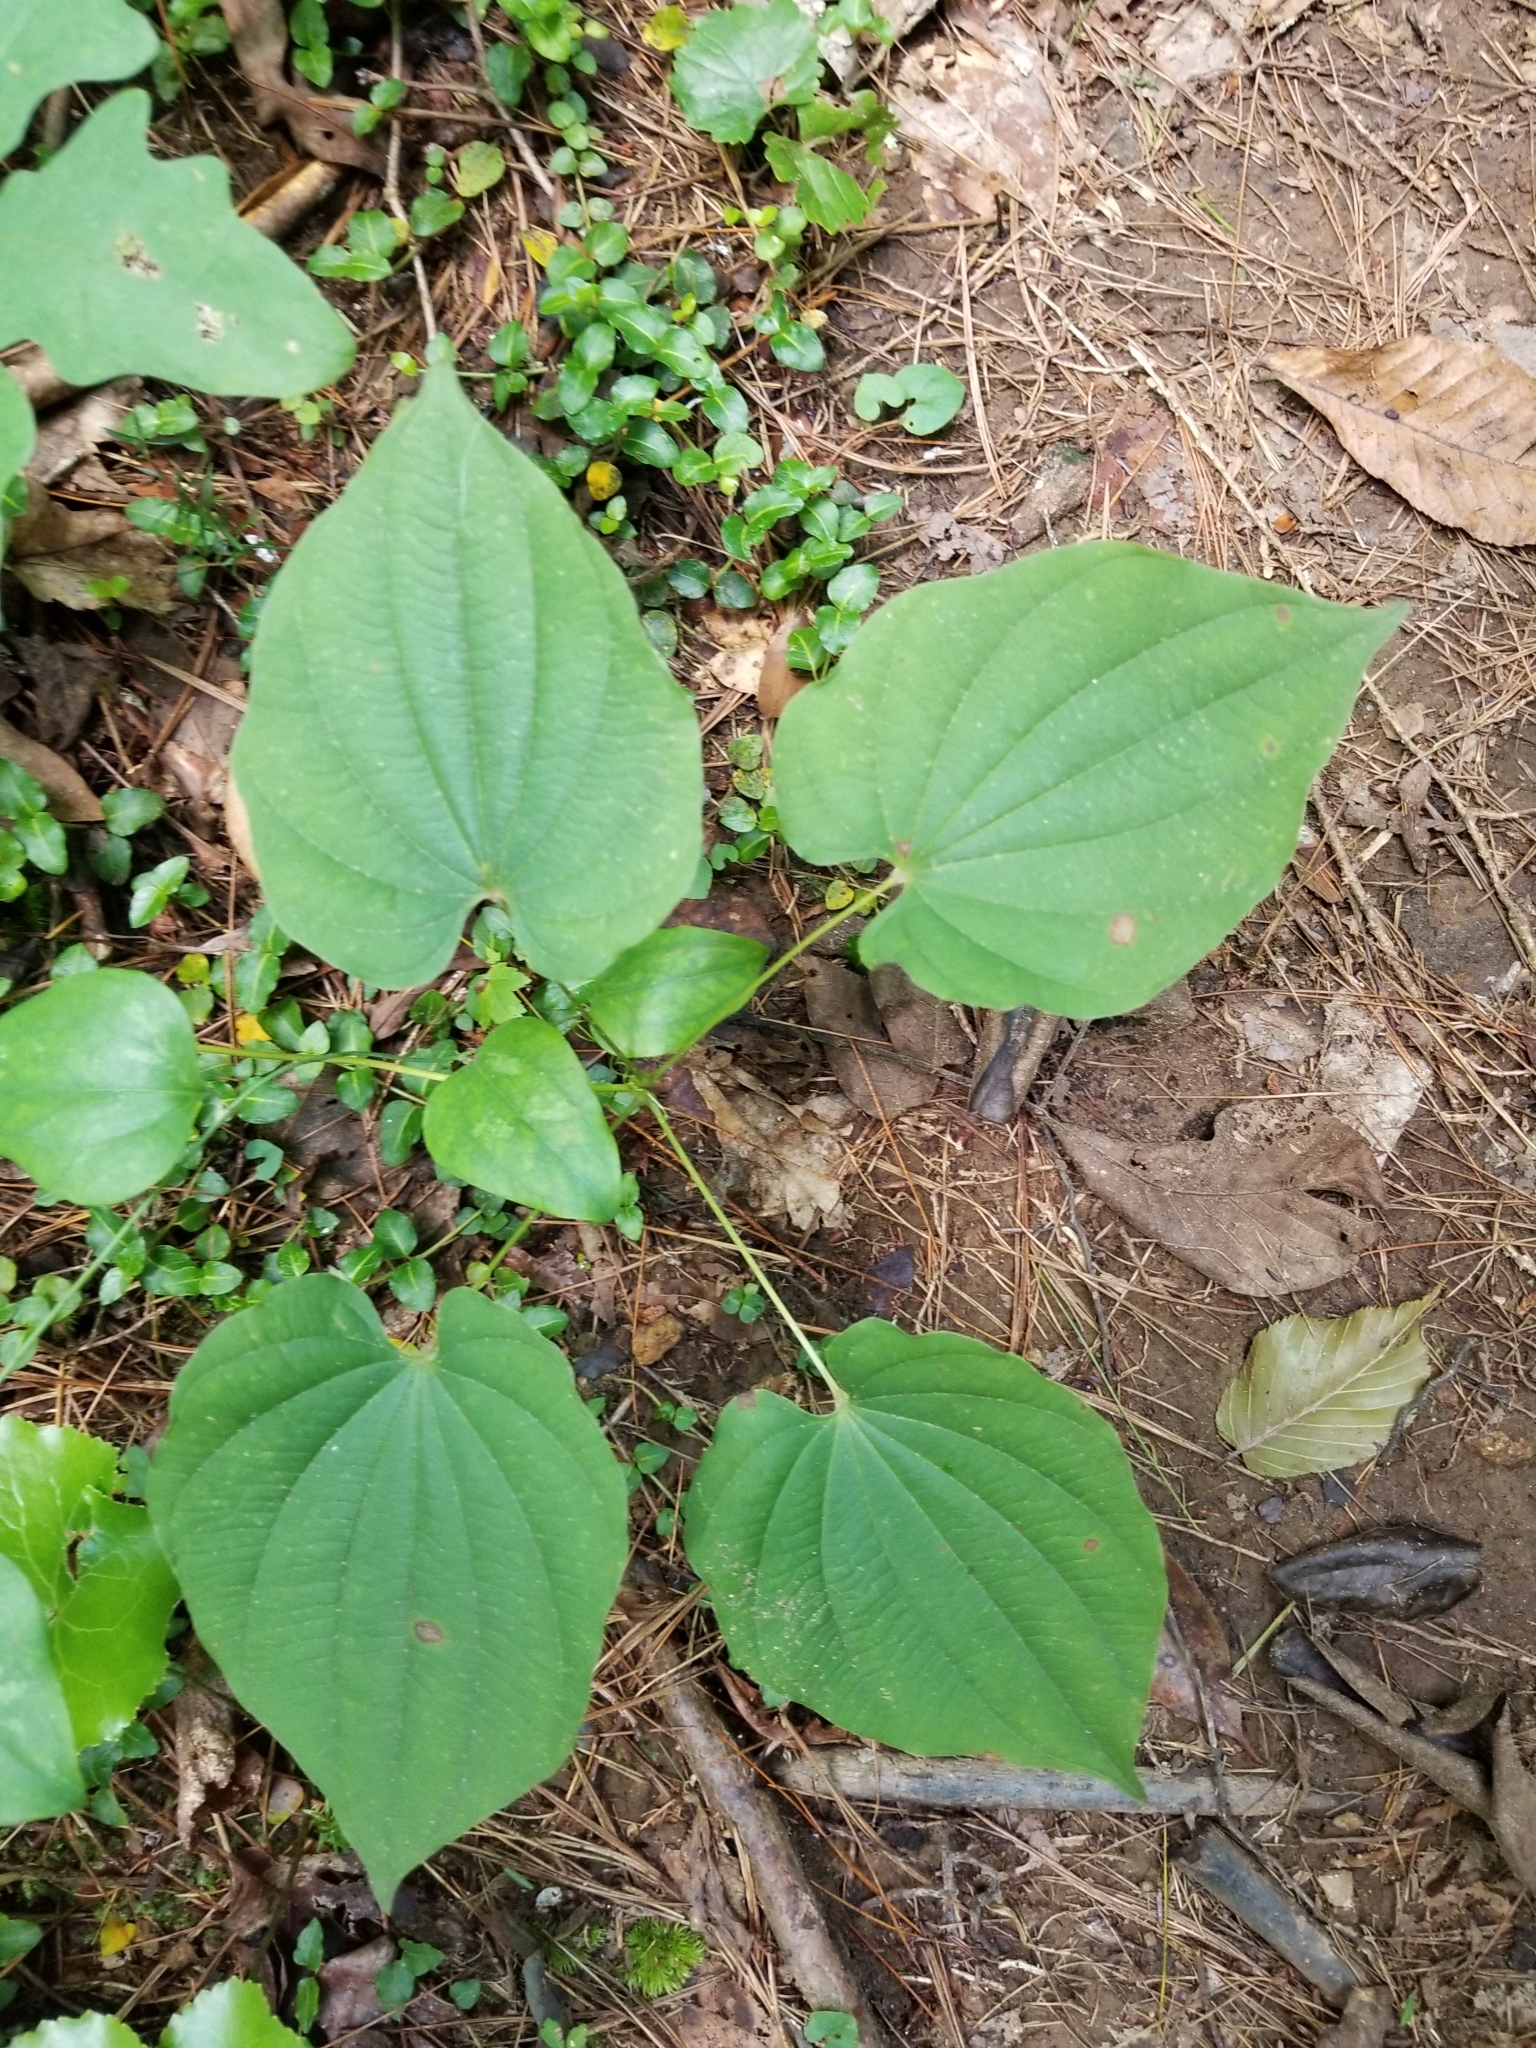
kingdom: Plantae
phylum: Tracheophyta
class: Liliopsida
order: Dioscoreales
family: Dioscoreaceae
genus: Dioscorea
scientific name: Dioscorea villosa
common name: Wild yam
